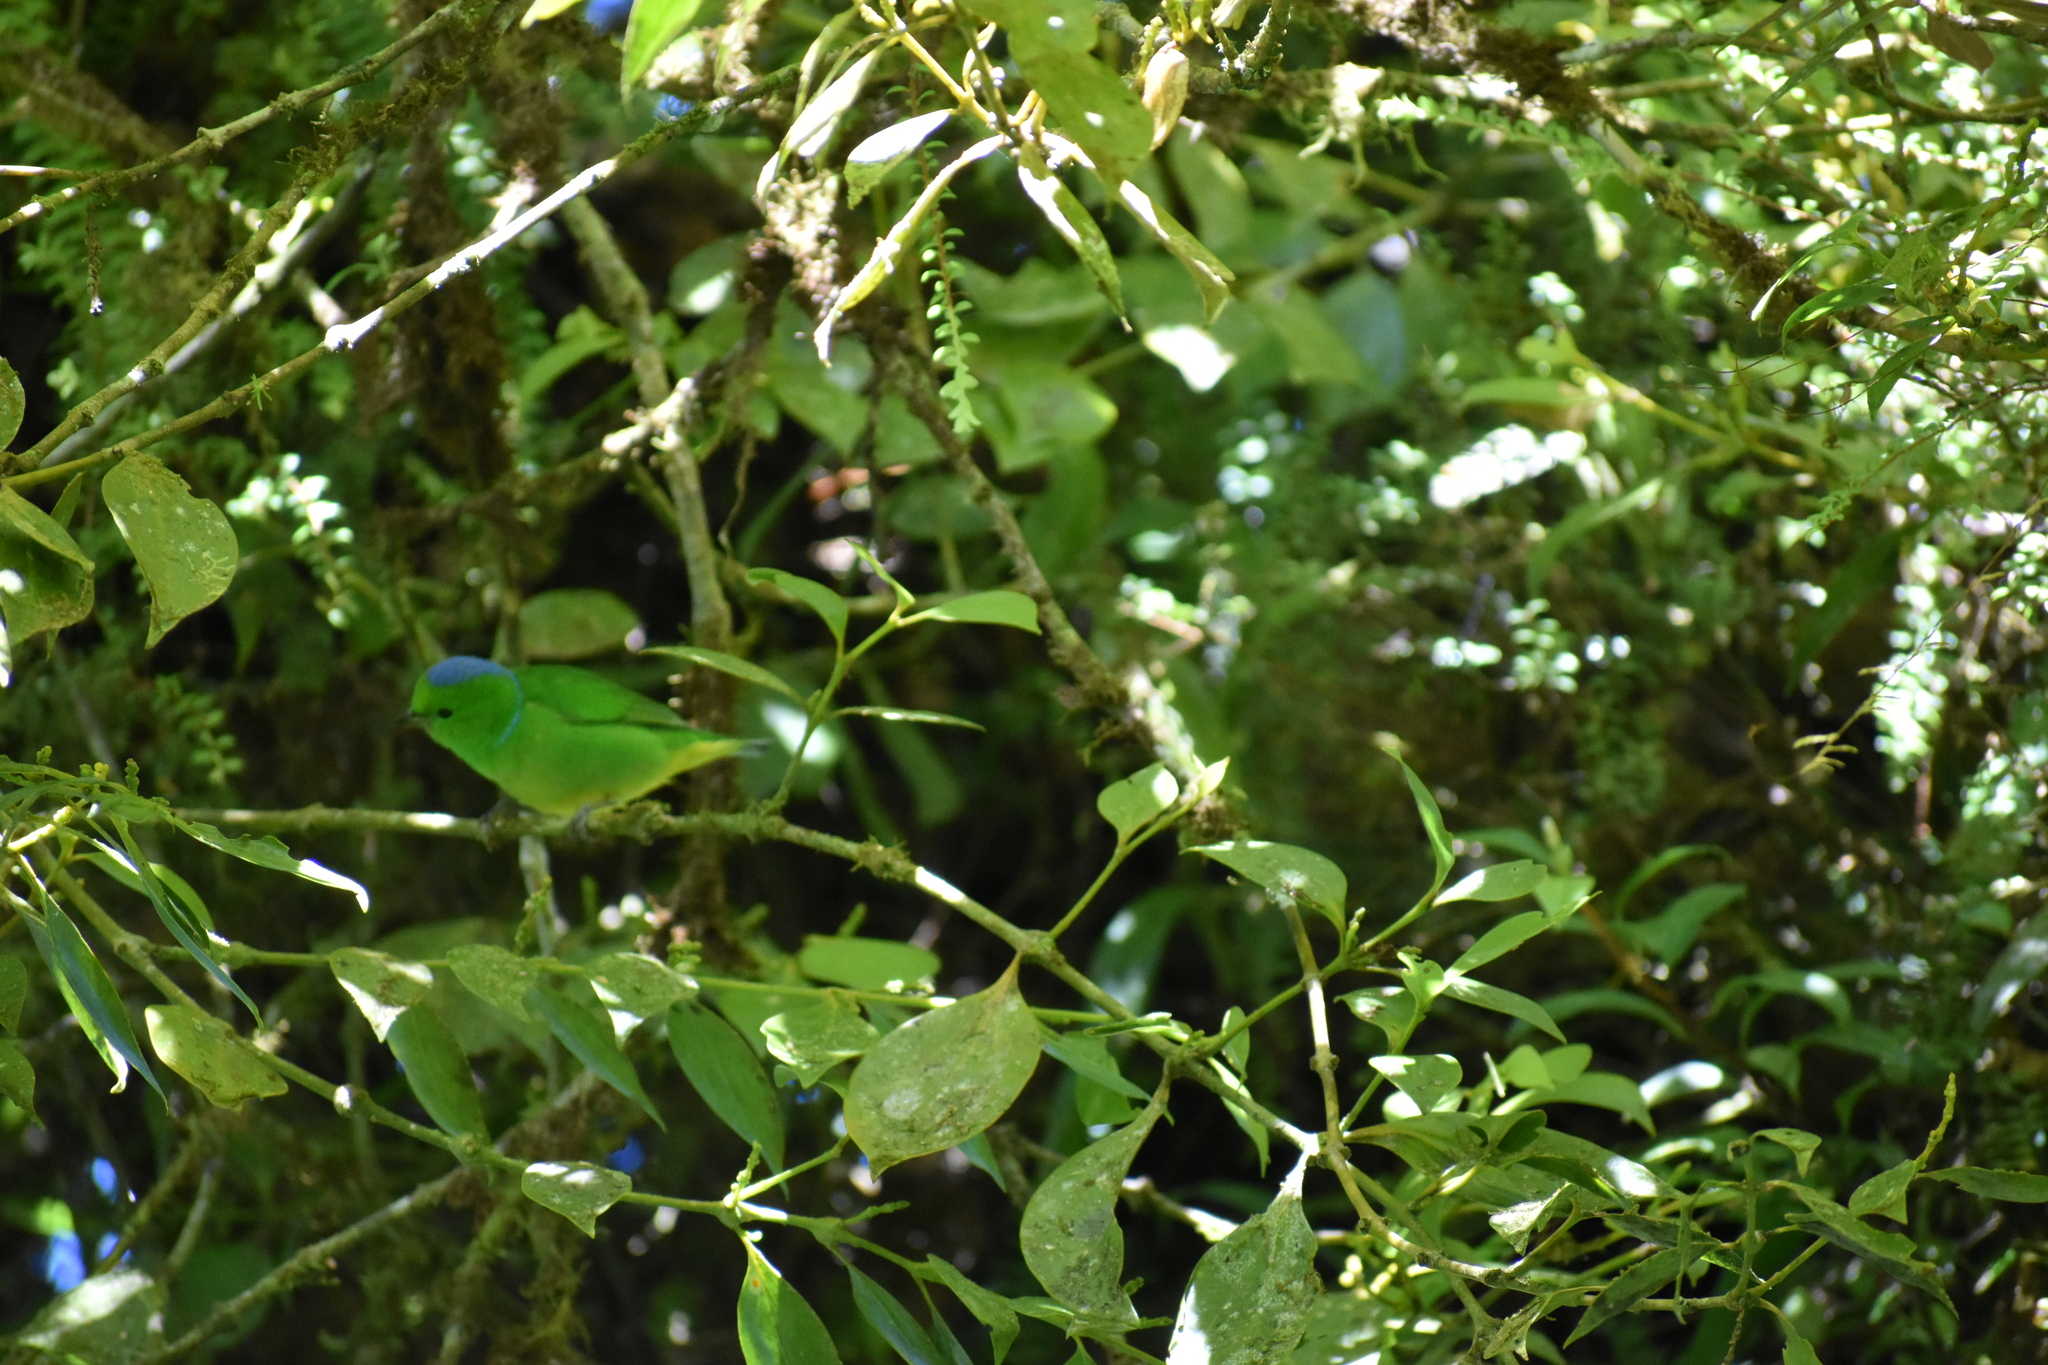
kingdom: Animalia
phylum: Chordata
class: Aves
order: Passeriformes
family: Fringillidae
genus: Chlorophonia
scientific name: Chlorophonia callophrys
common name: Golden-browed chlorophonia
